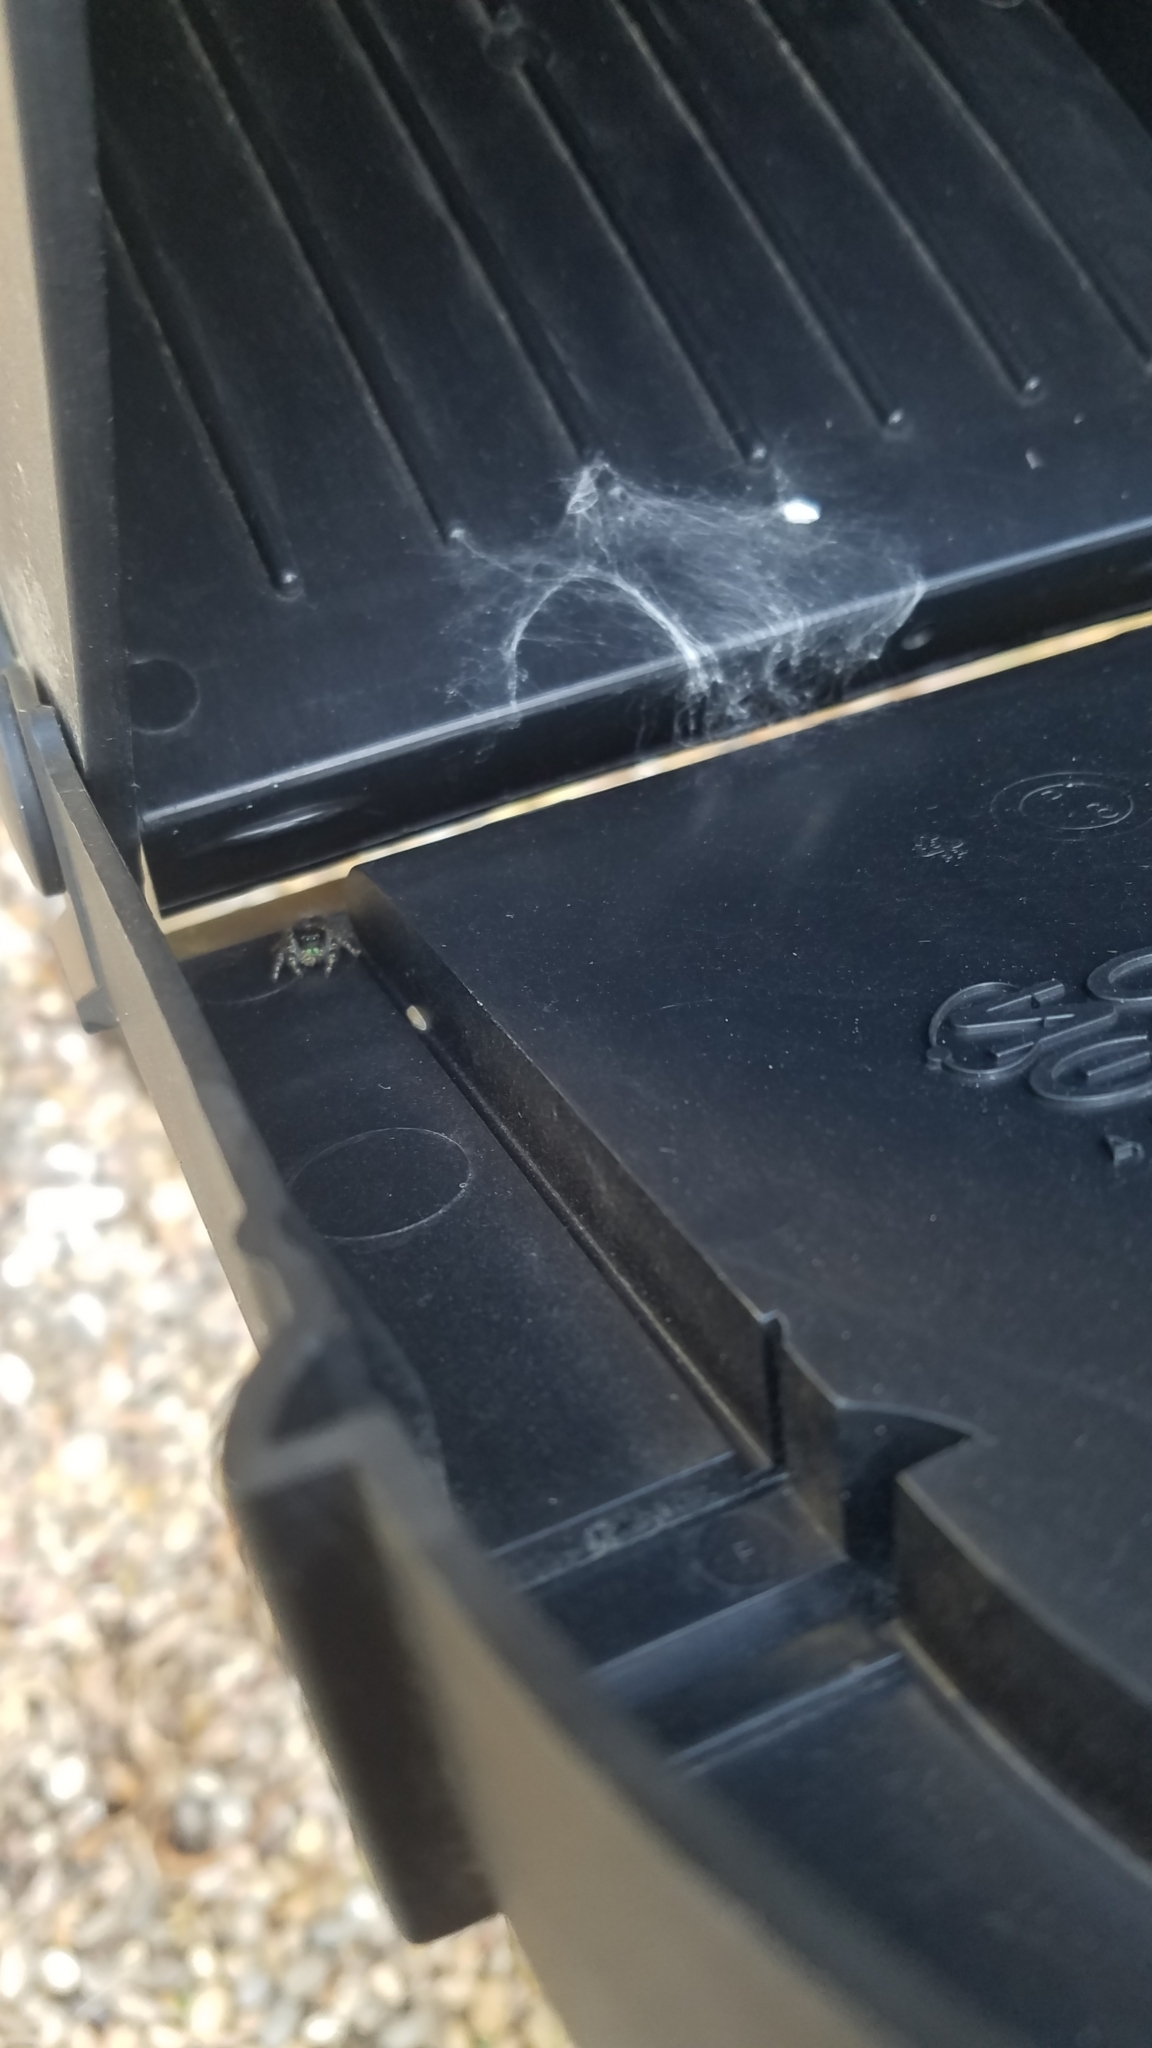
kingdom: Animalia
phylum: Arthropoda
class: Arachnida
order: Araneae
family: Salticidae
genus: Phidippus
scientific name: Phidippus audax
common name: Bold jumper
